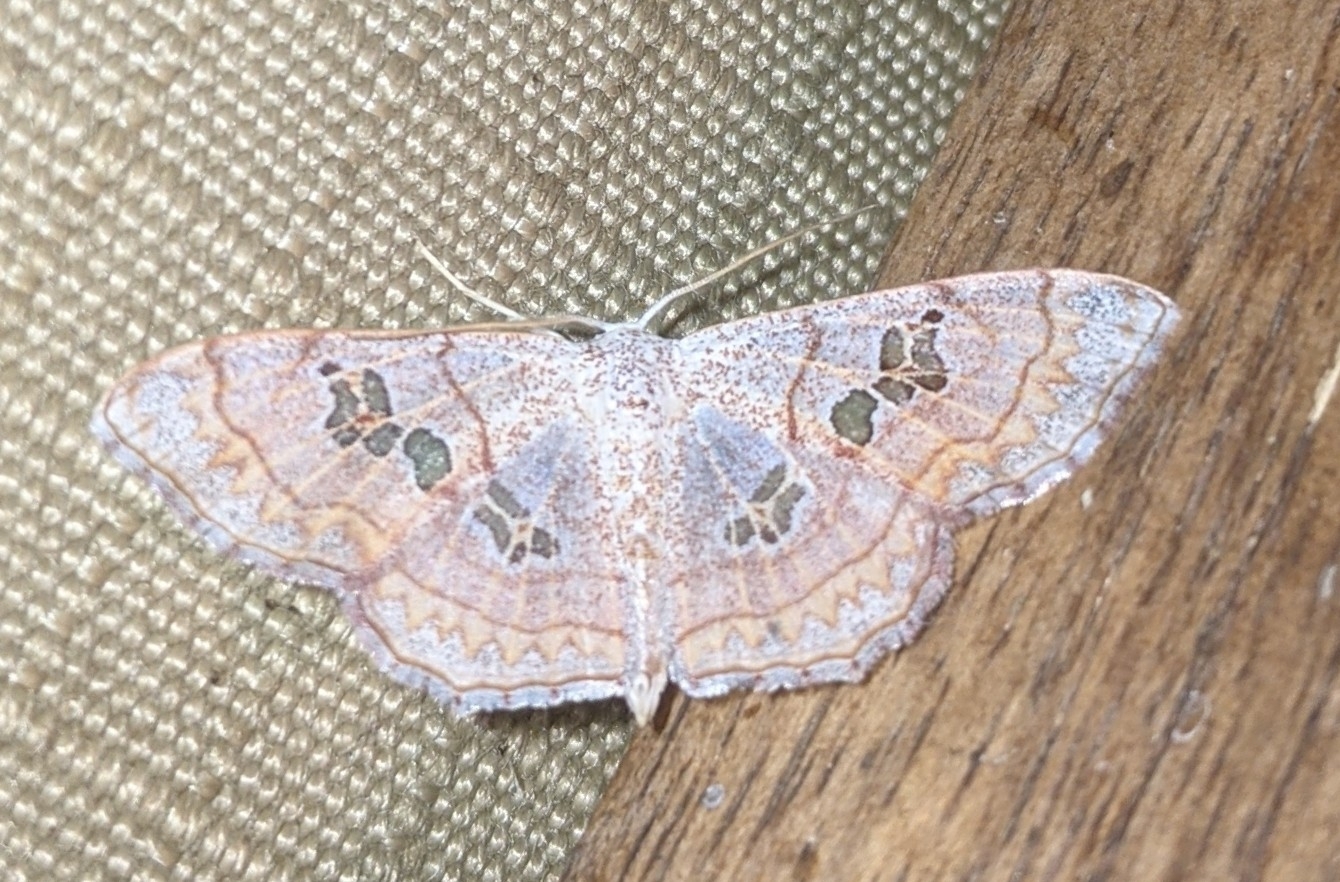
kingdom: Animalia
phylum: Arthropoda
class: Insecta
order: Lepidoptera
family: Geometridae
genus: Scopula
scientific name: Scopula
